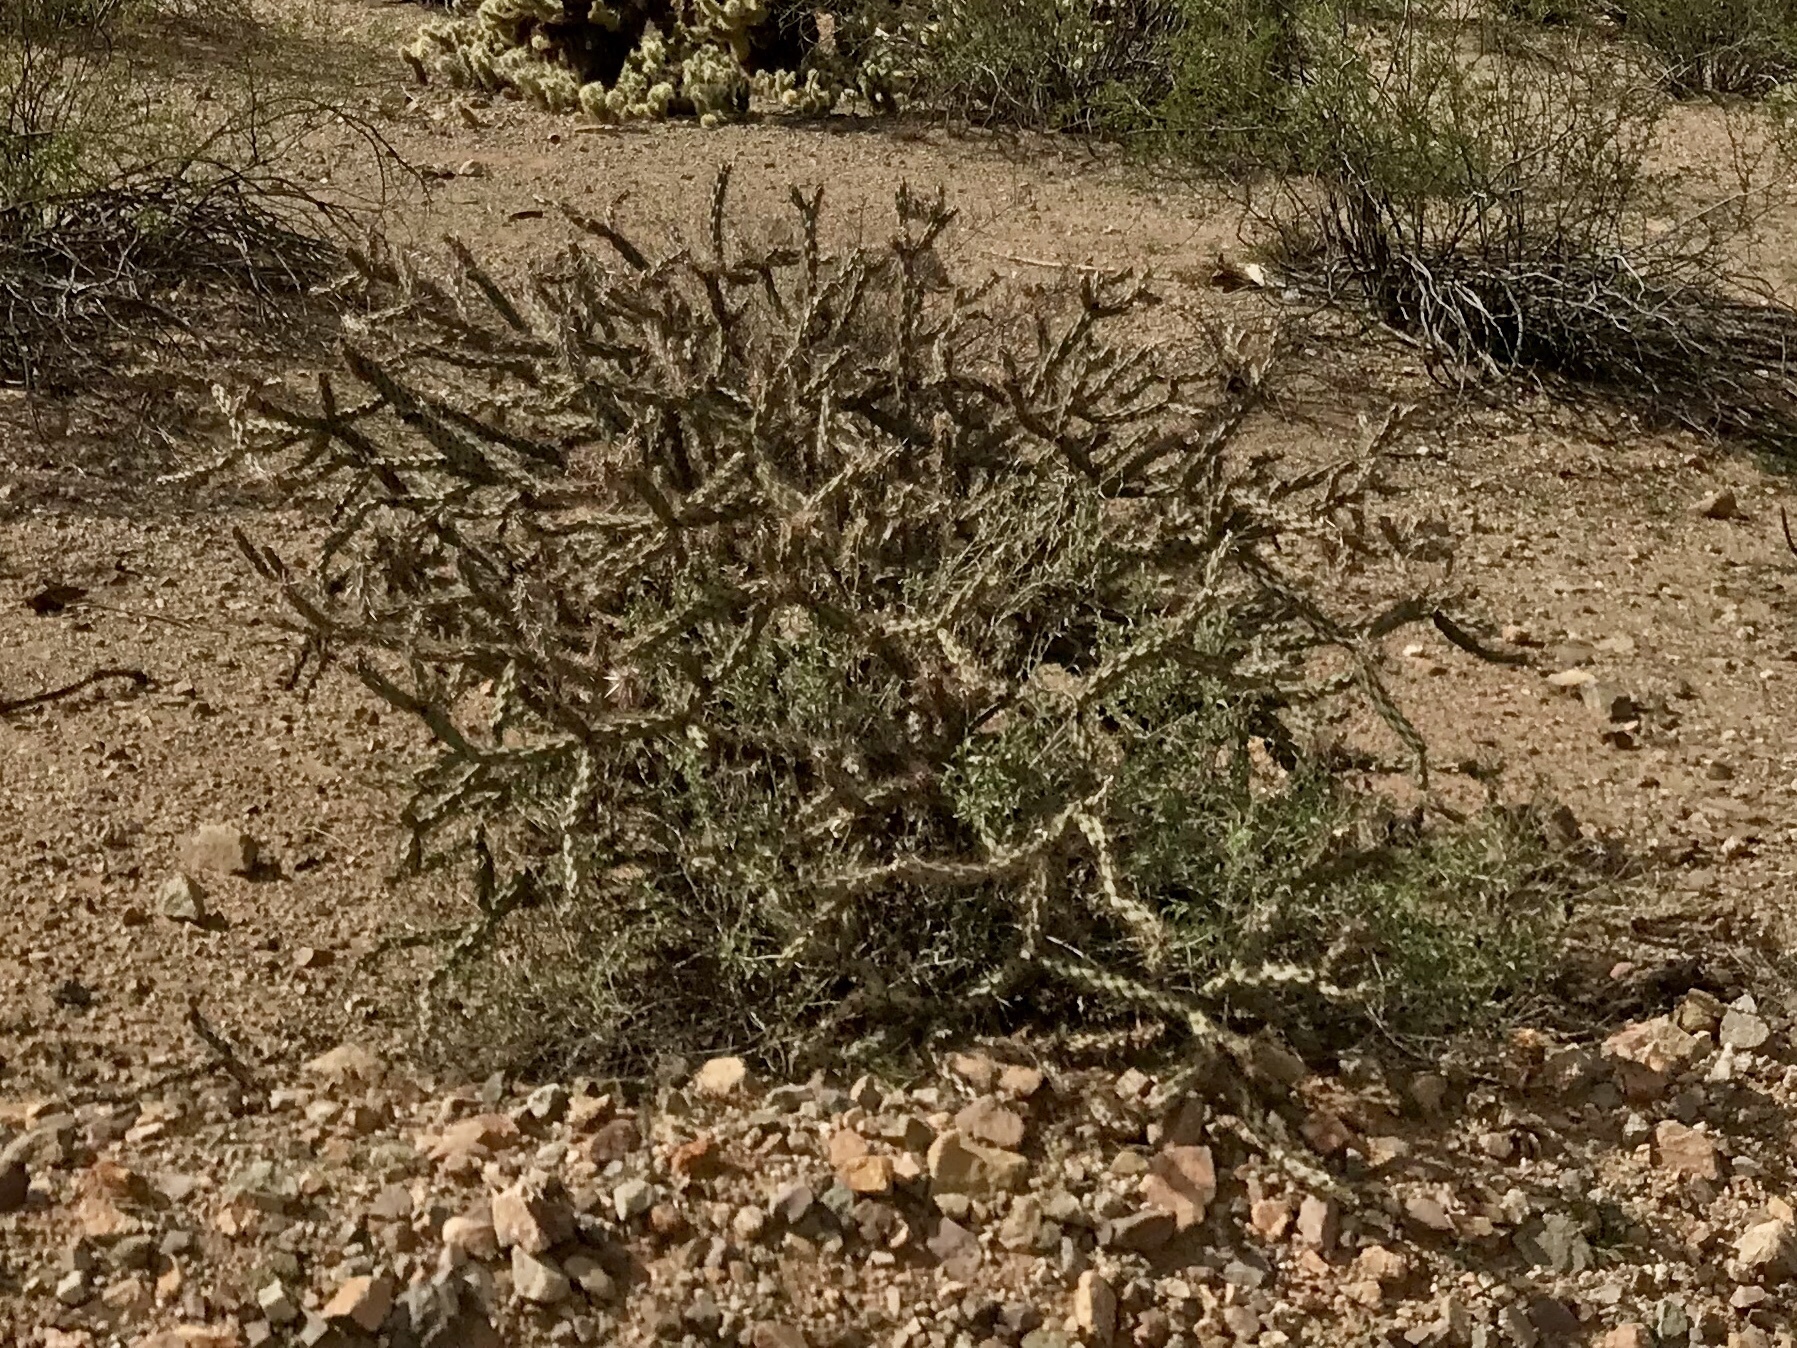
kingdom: Plantae
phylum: Tracheophyta
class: Magnoliopsida
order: Caryophyllales
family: Cactaceae
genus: Cylindropuntia
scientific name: Cylindropuntia acanthocarpa
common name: Buckhorn cholla
